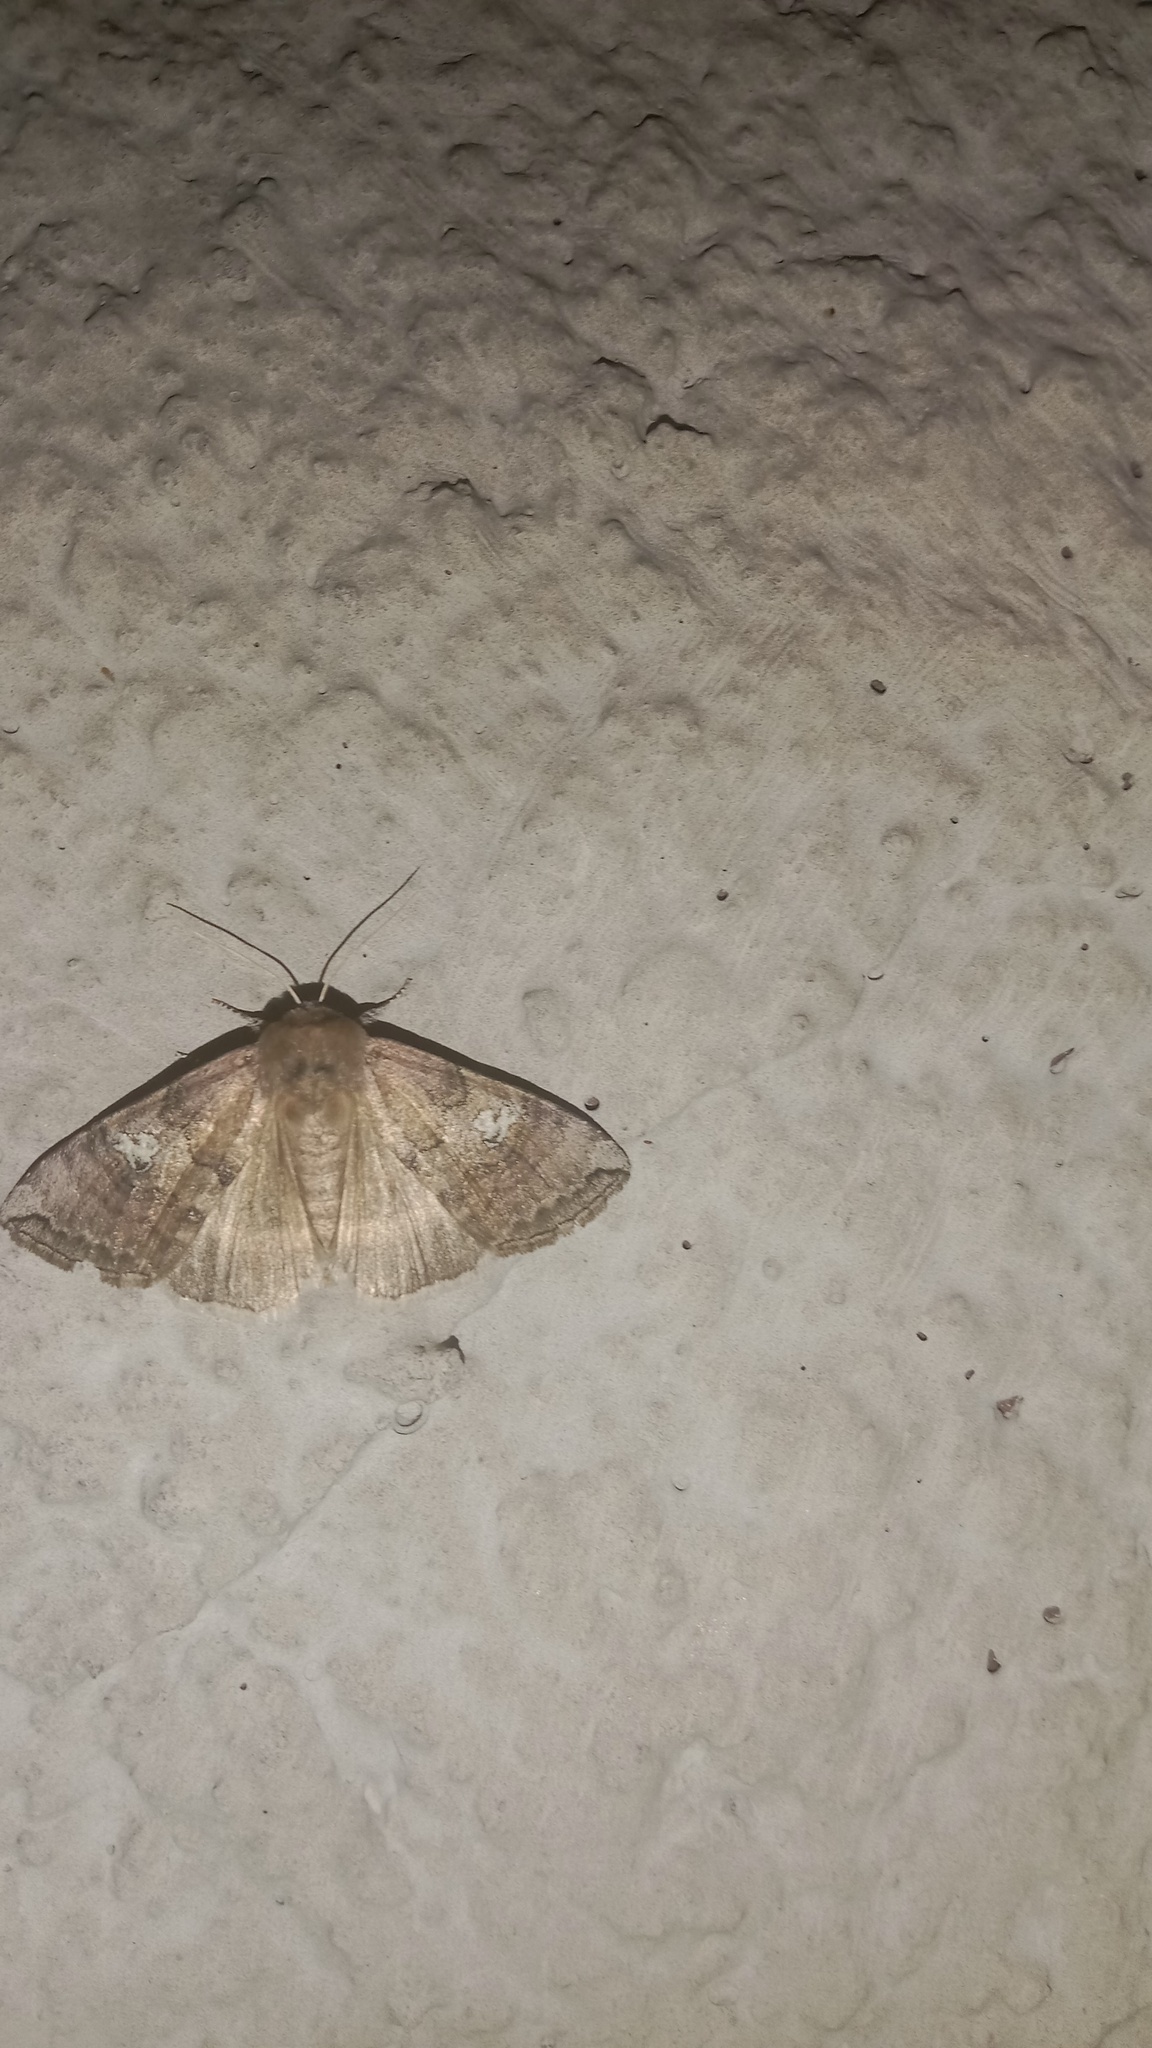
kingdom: Animalia
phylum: Arthropoda
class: Insecta
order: Lepidoptera
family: Drepanidae
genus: Tethea
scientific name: Tethea ocularis
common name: Figure of eighty
